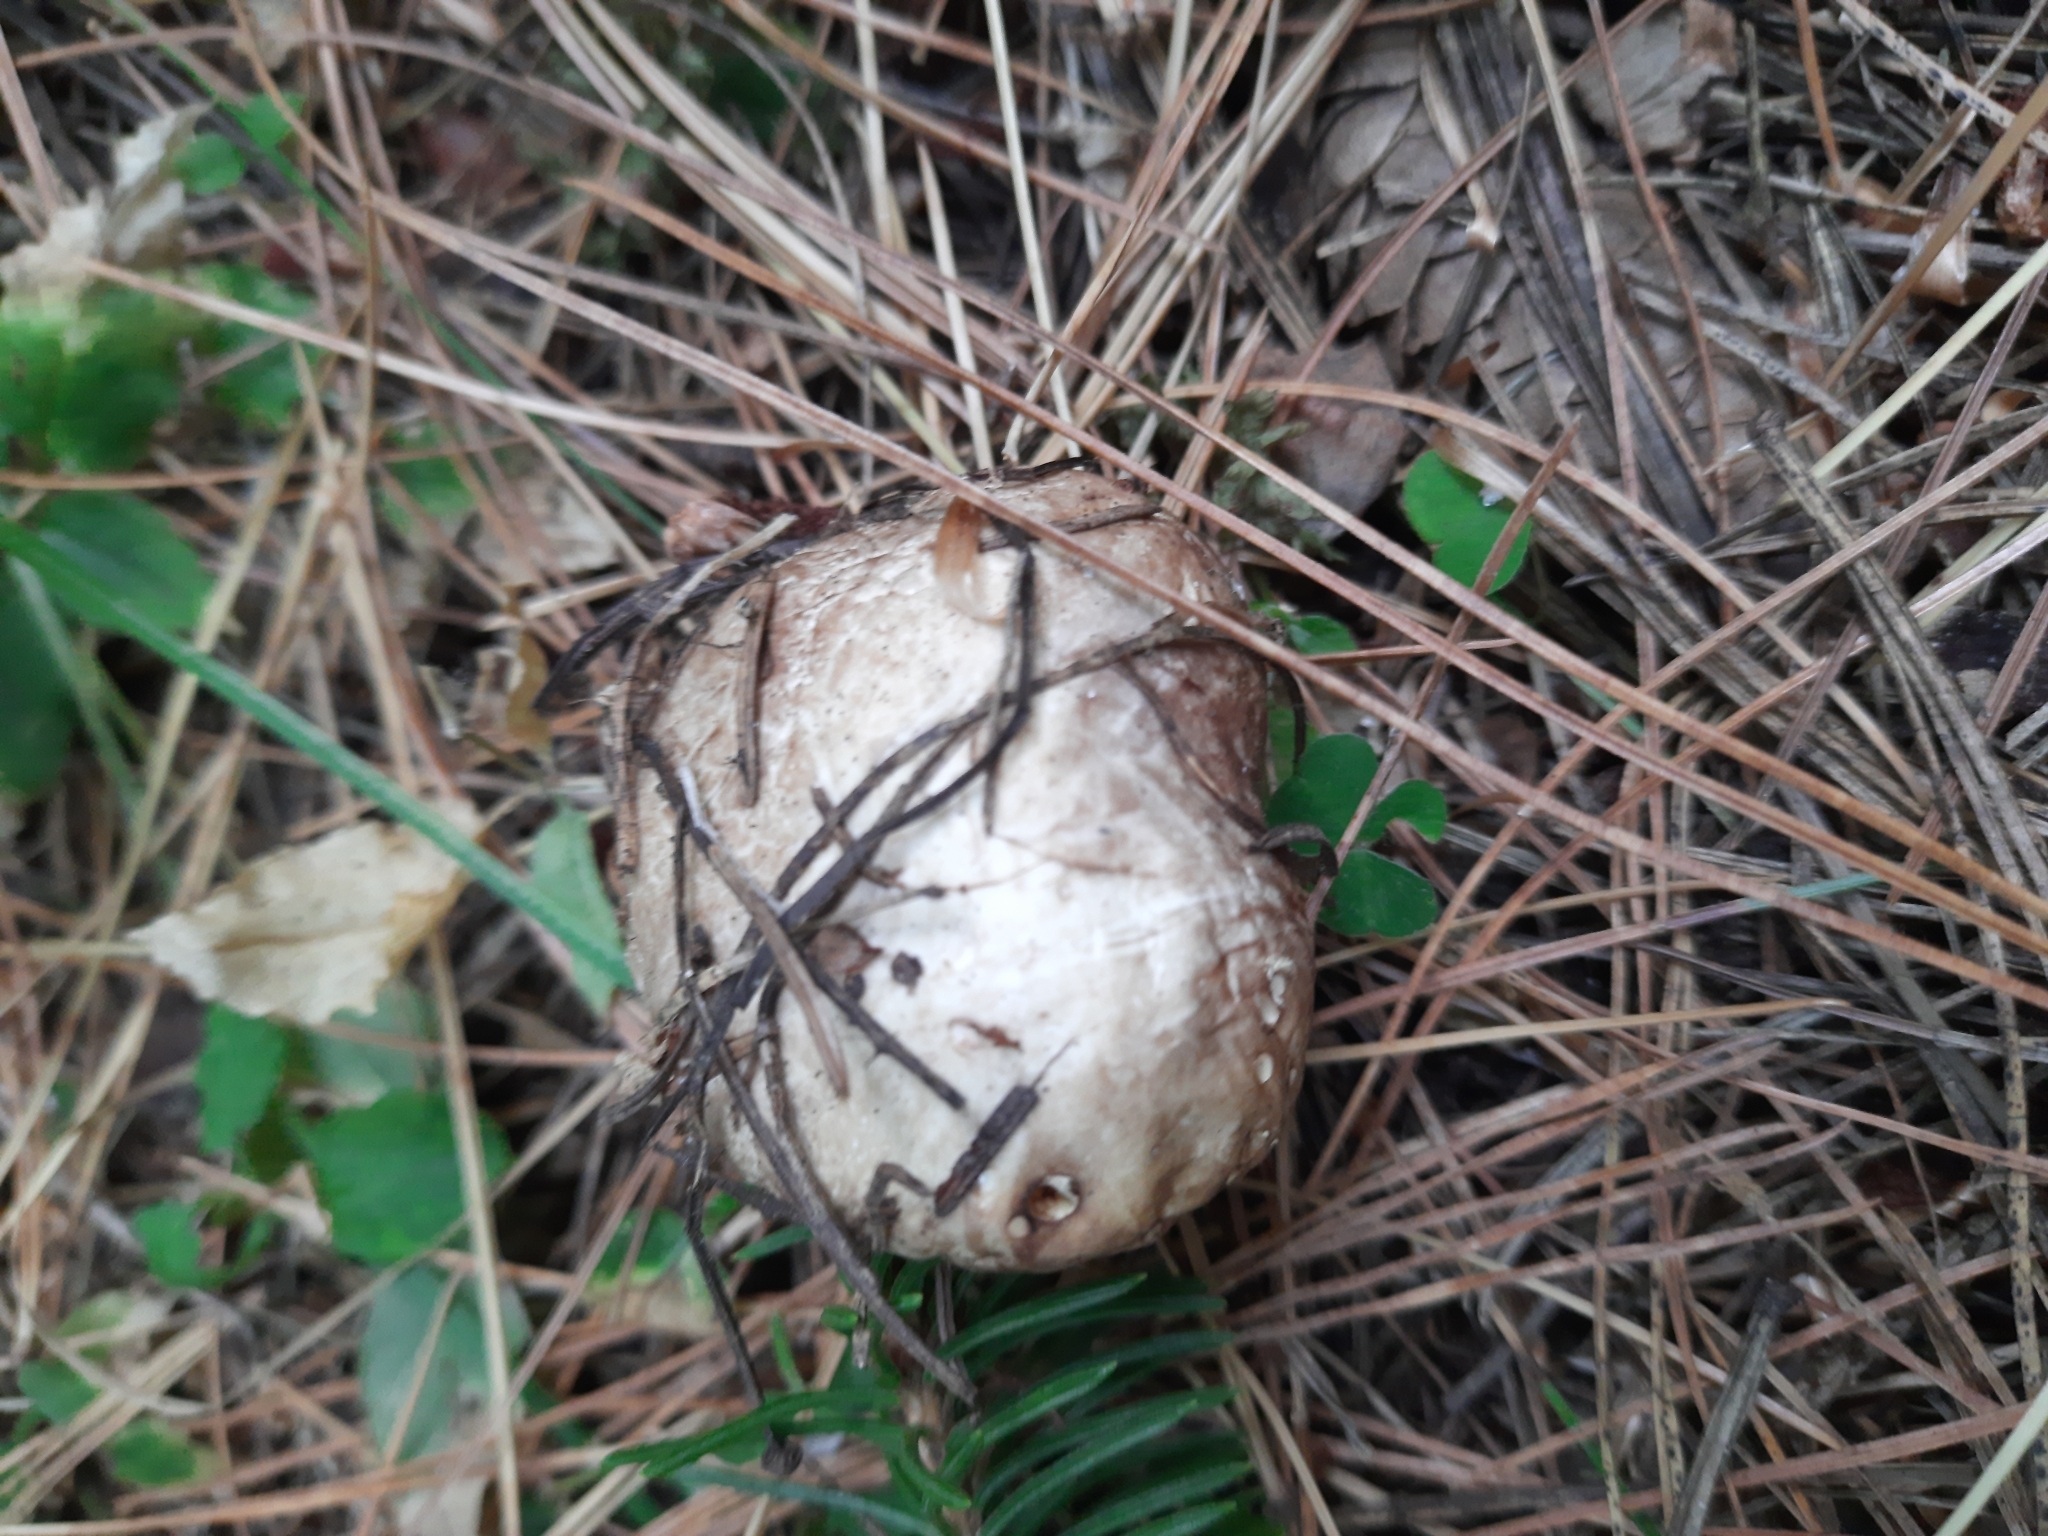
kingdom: Fungi
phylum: Basidiomycota
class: Agaricomycetes
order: Boletales
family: Suillaceae
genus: Suillus
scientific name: Suillus placidus
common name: Slippery white bolete
